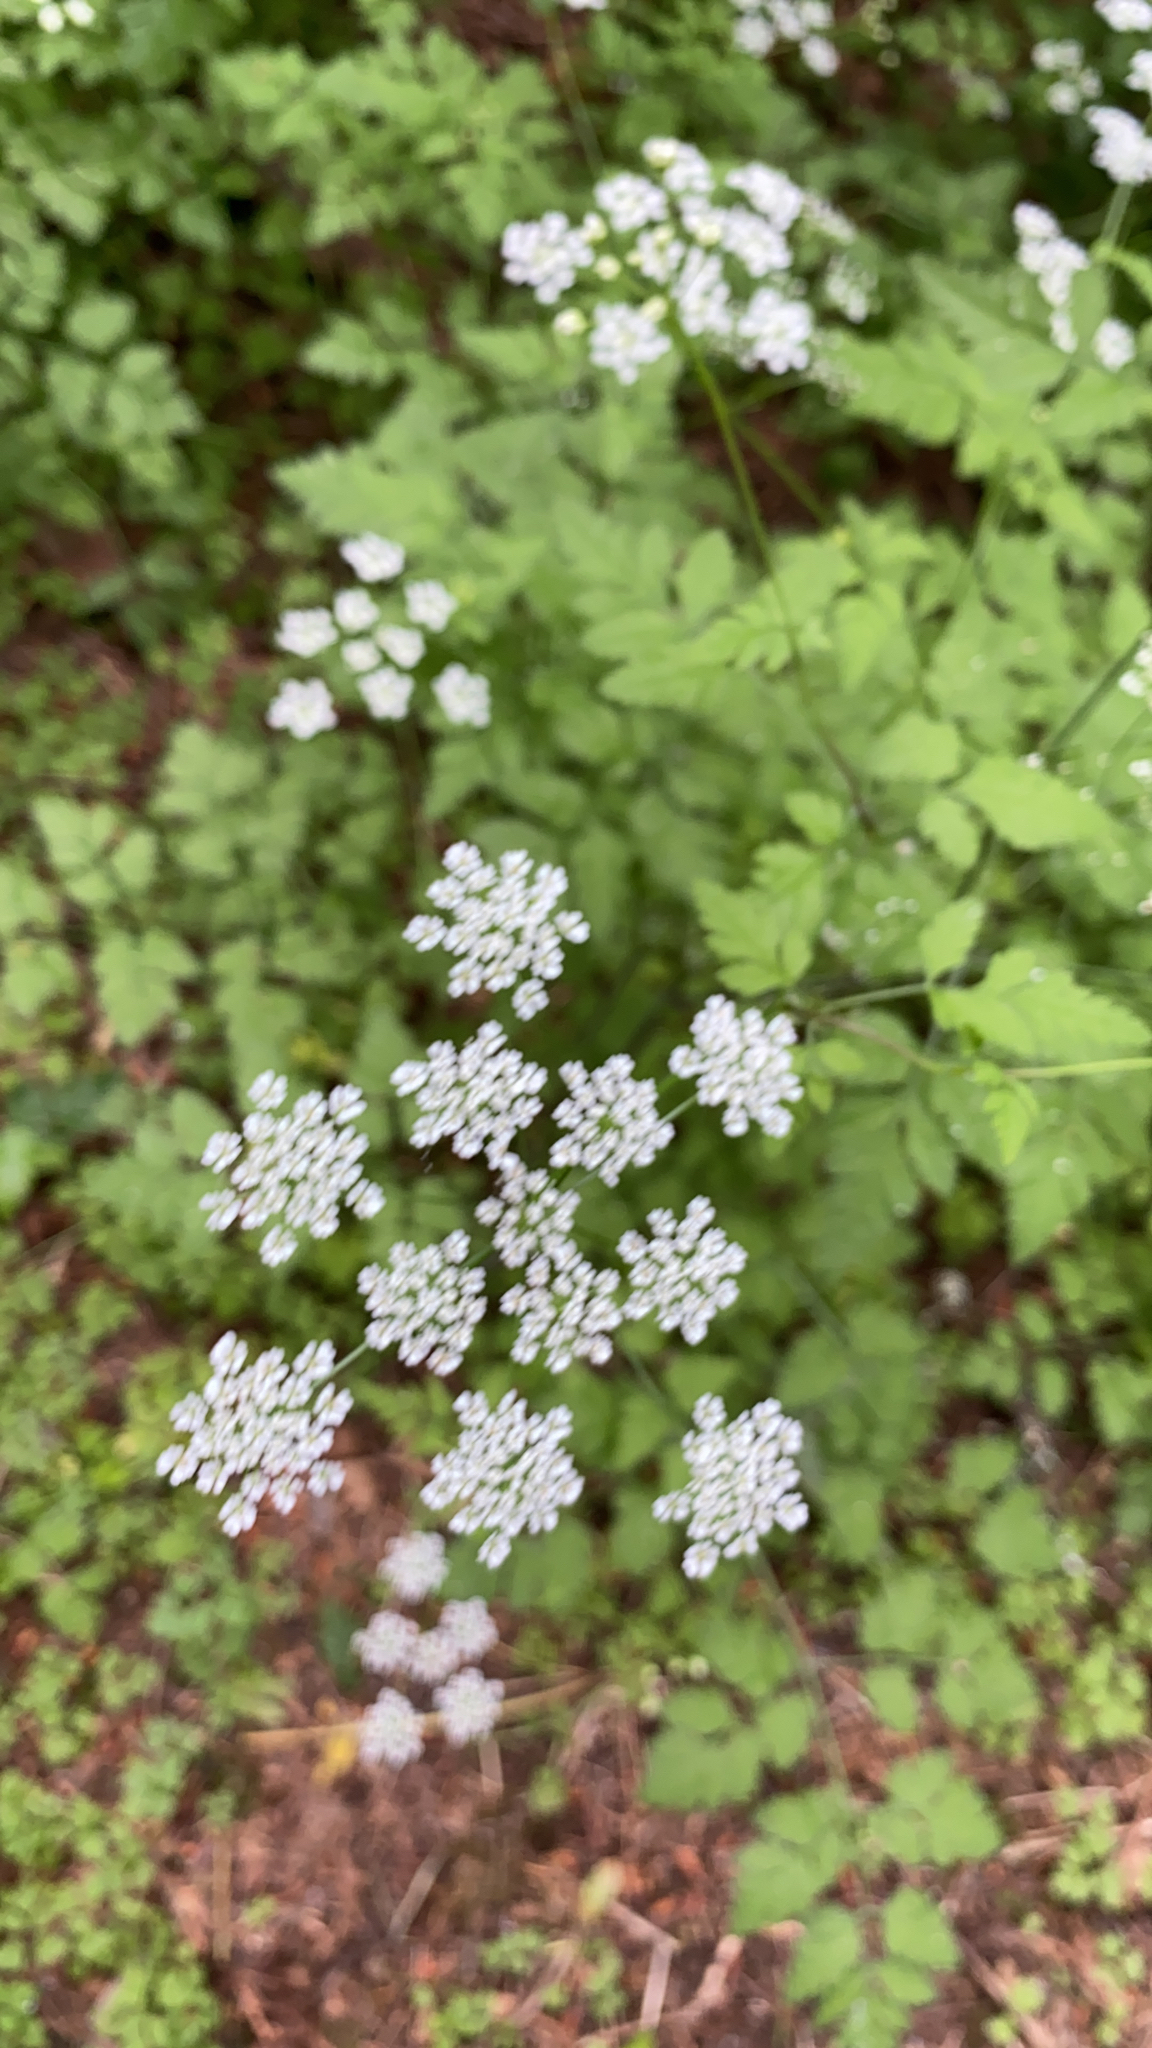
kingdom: Plantae
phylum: Tracheophyta
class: Magnoliopsida
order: Apiales
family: Apiaceae
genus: Chaerophyllum
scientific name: Chaerophyllum temulum
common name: Rough chervil
